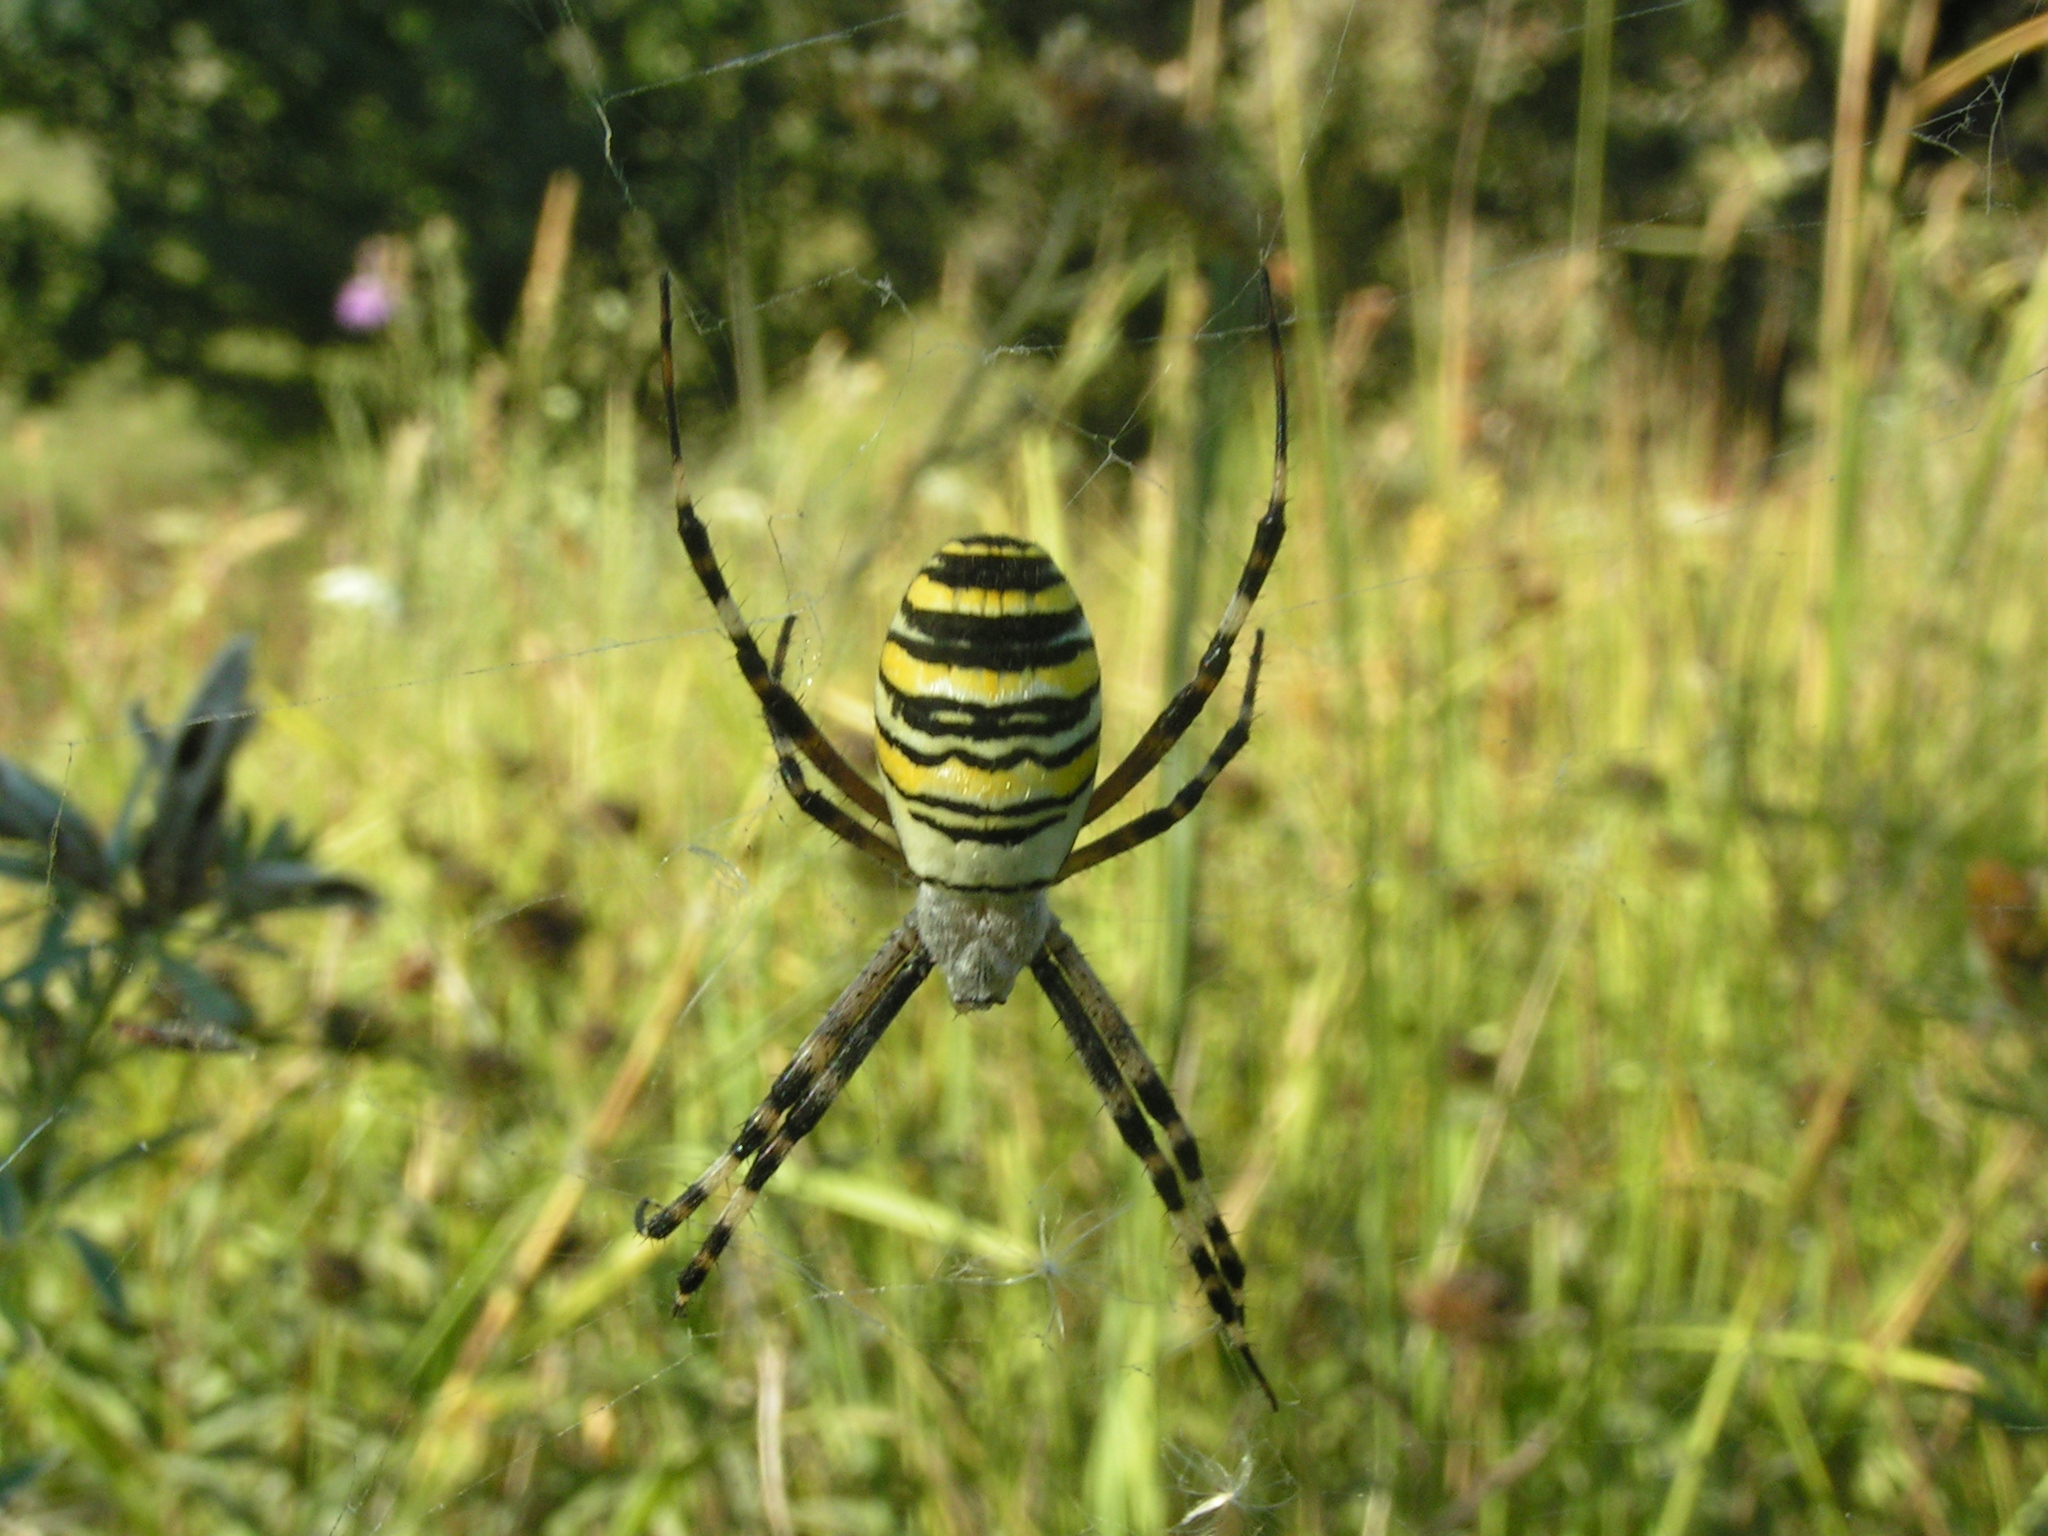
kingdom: Animalia
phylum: Arthropoda
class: Arachnida
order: Araneae
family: Araneidae
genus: Argiope
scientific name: Argiope bruennichi
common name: Wasp spider
